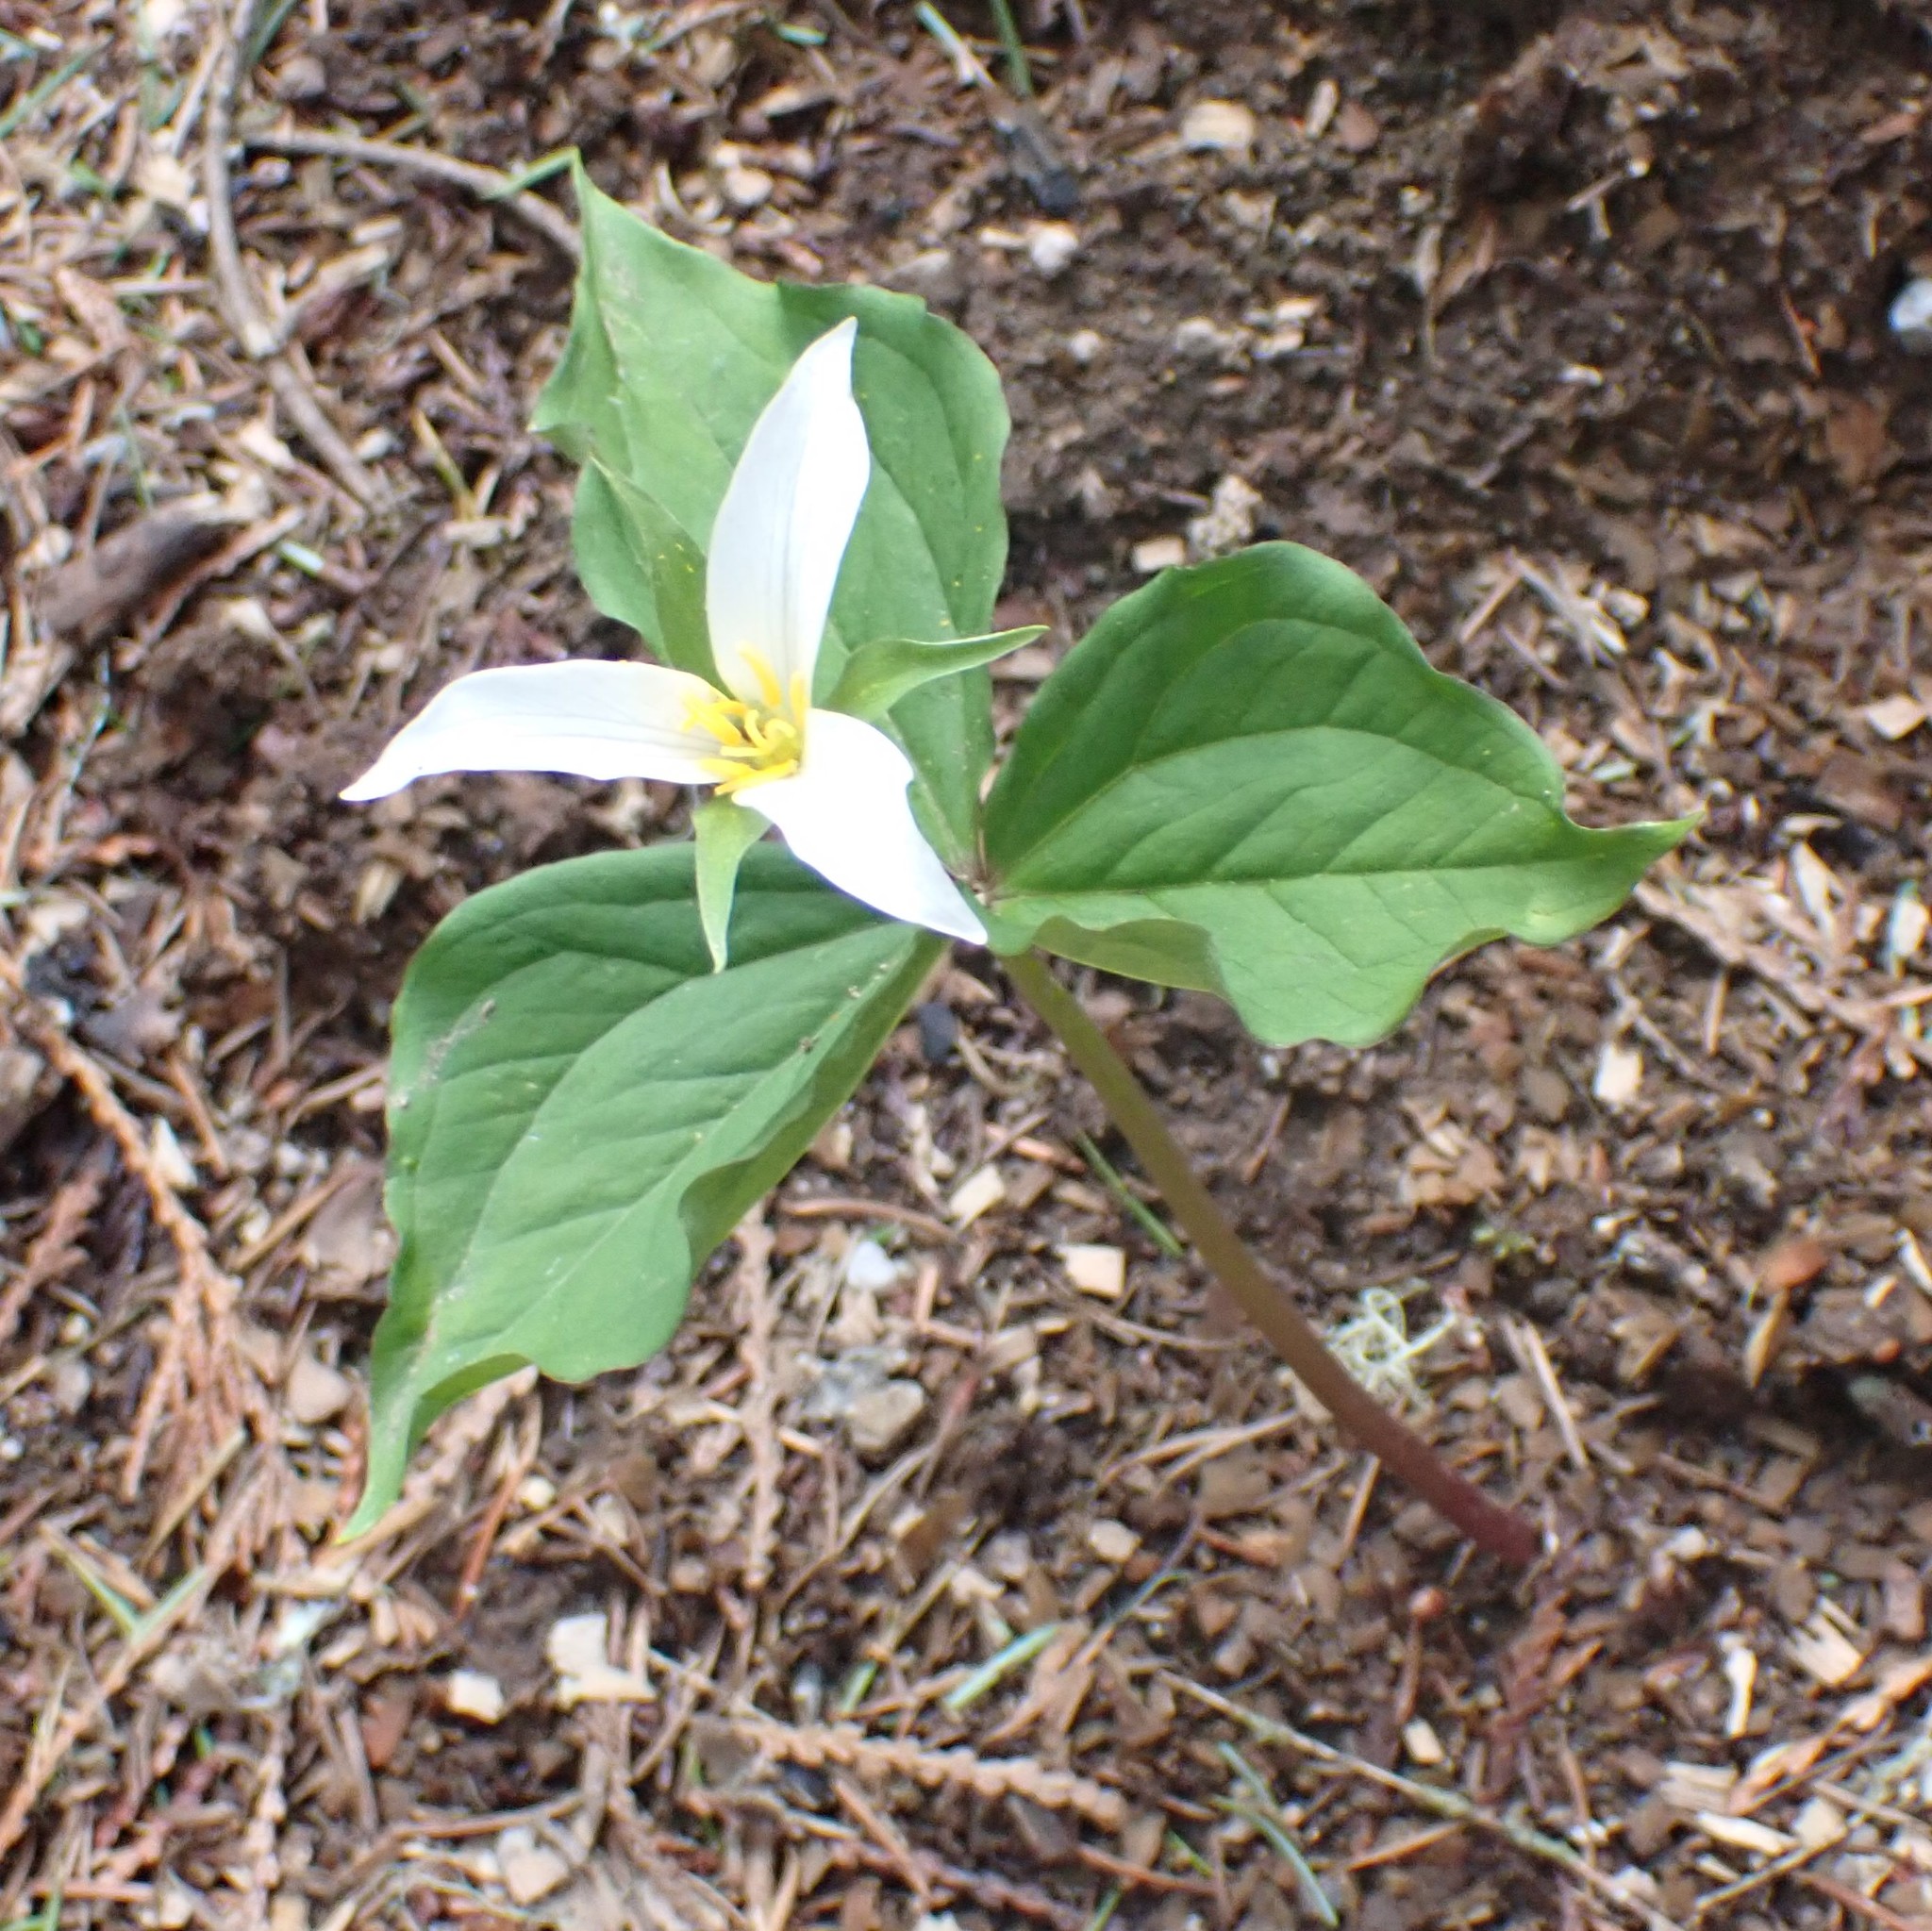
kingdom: Plantae
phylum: Tracheophyta
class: Liliopsida
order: Liliales
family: Melanthiaceae
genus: Trillium
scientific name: Trillium ovatum
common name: Pacific trillium
